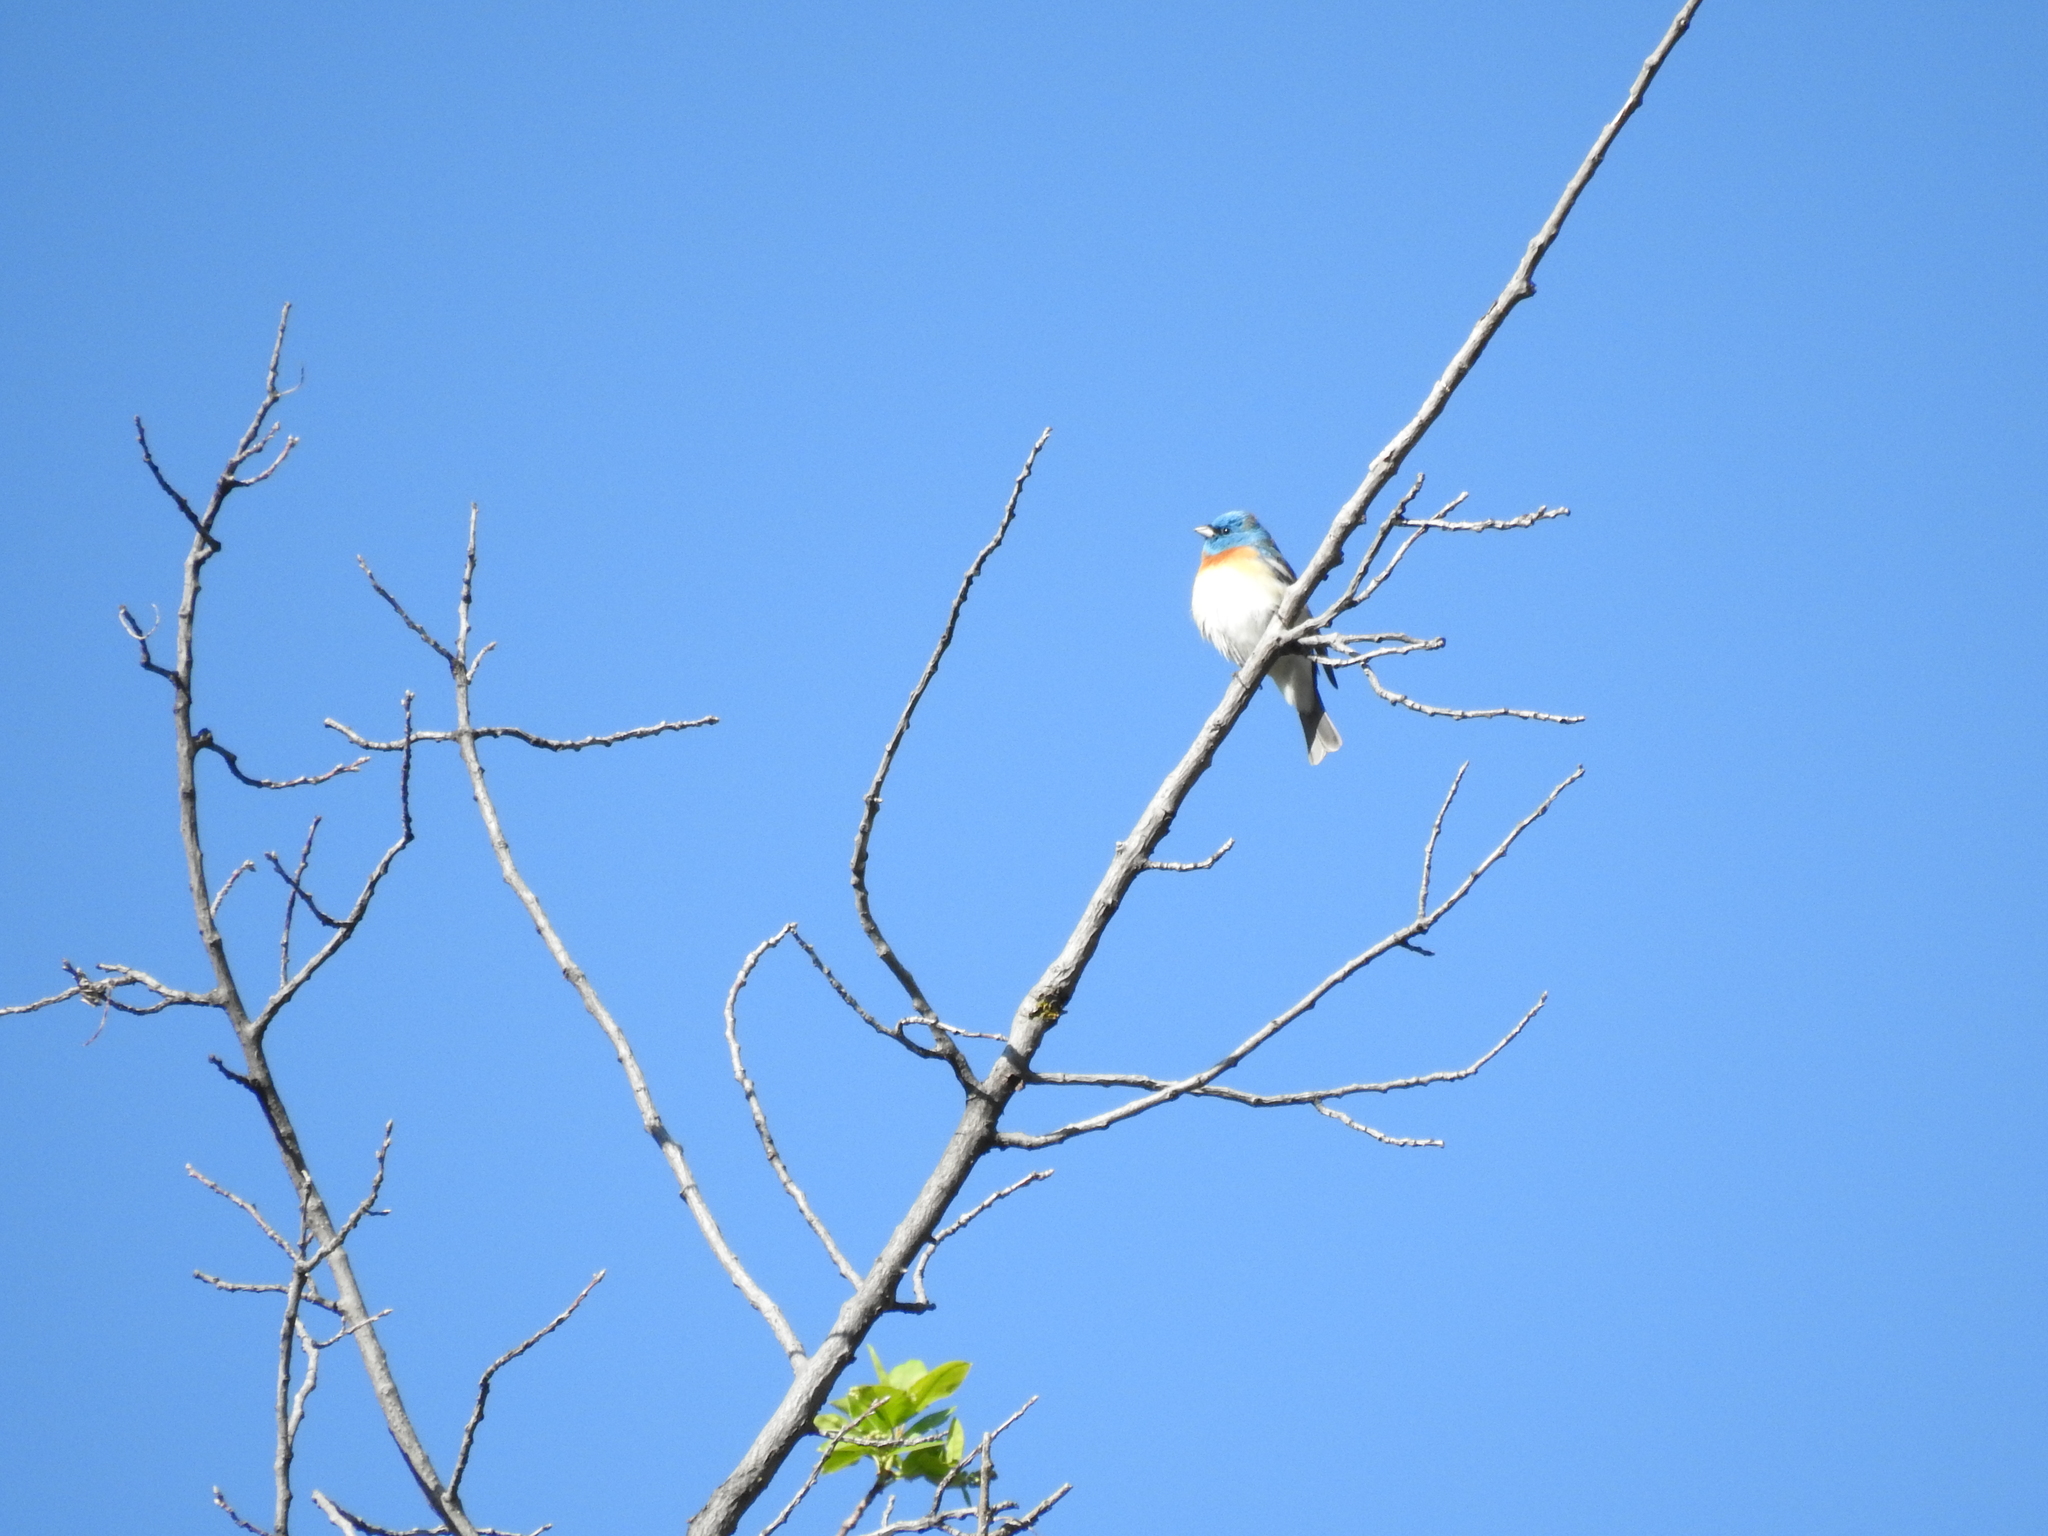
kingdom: Animalia
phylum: Chordata
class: Aves
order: Passeriformes
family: Cardinalidae
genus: Passerina
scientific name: Passerina amoena
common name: Lazuli bunting
